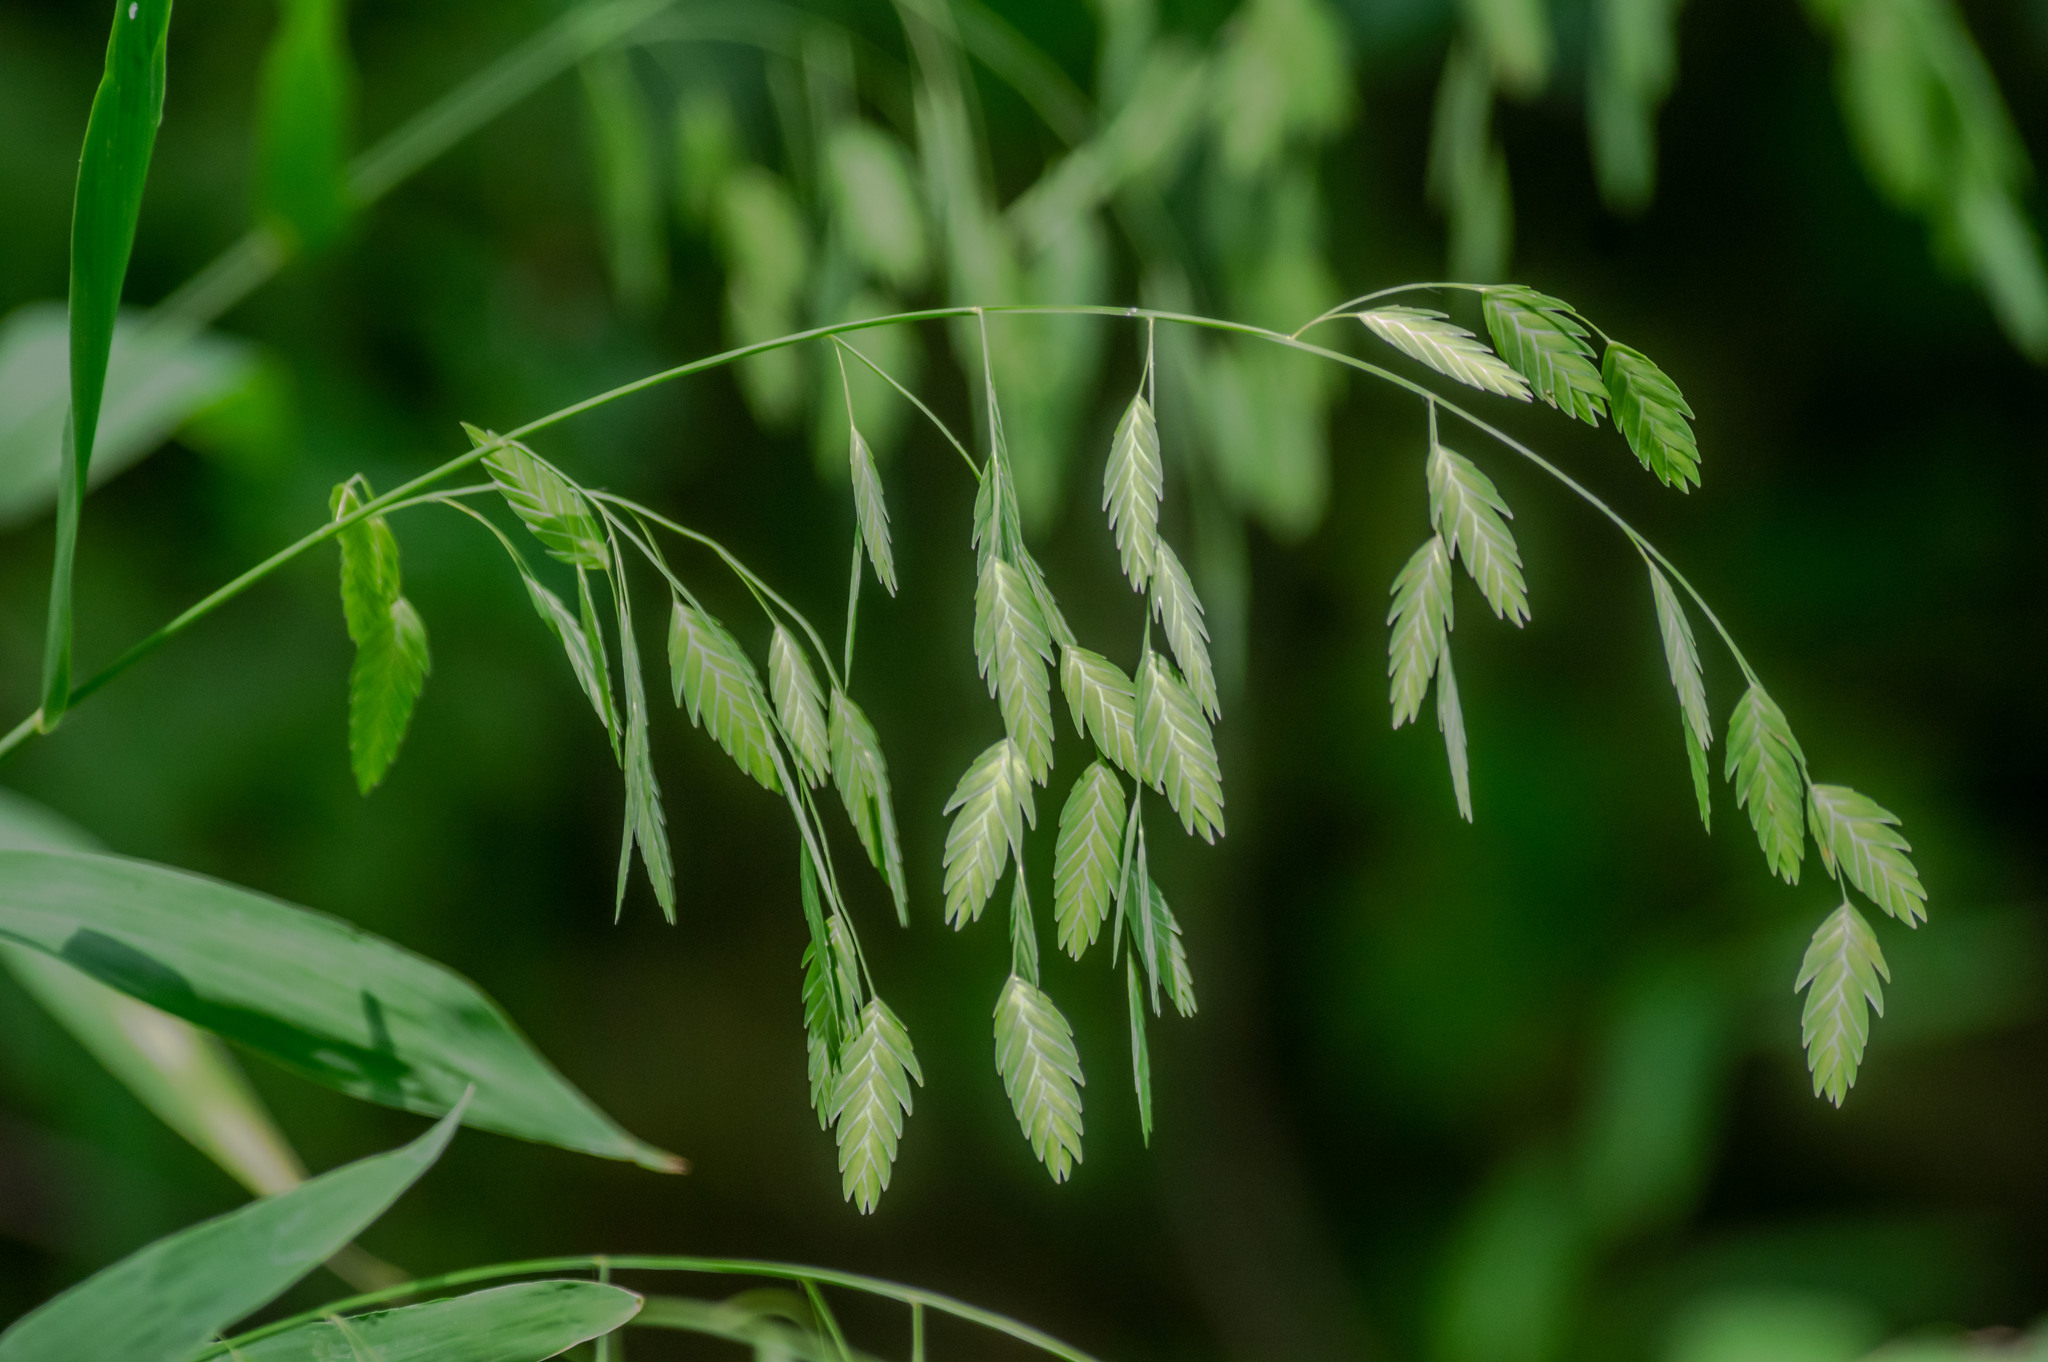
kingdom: Plantae
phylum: Tracheophyta
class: Liliopsida
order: Poales
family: Poaceae
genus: Chasmanthium
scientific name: Chasmanthium latifolium
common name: Broad-leaved chasmanthium
